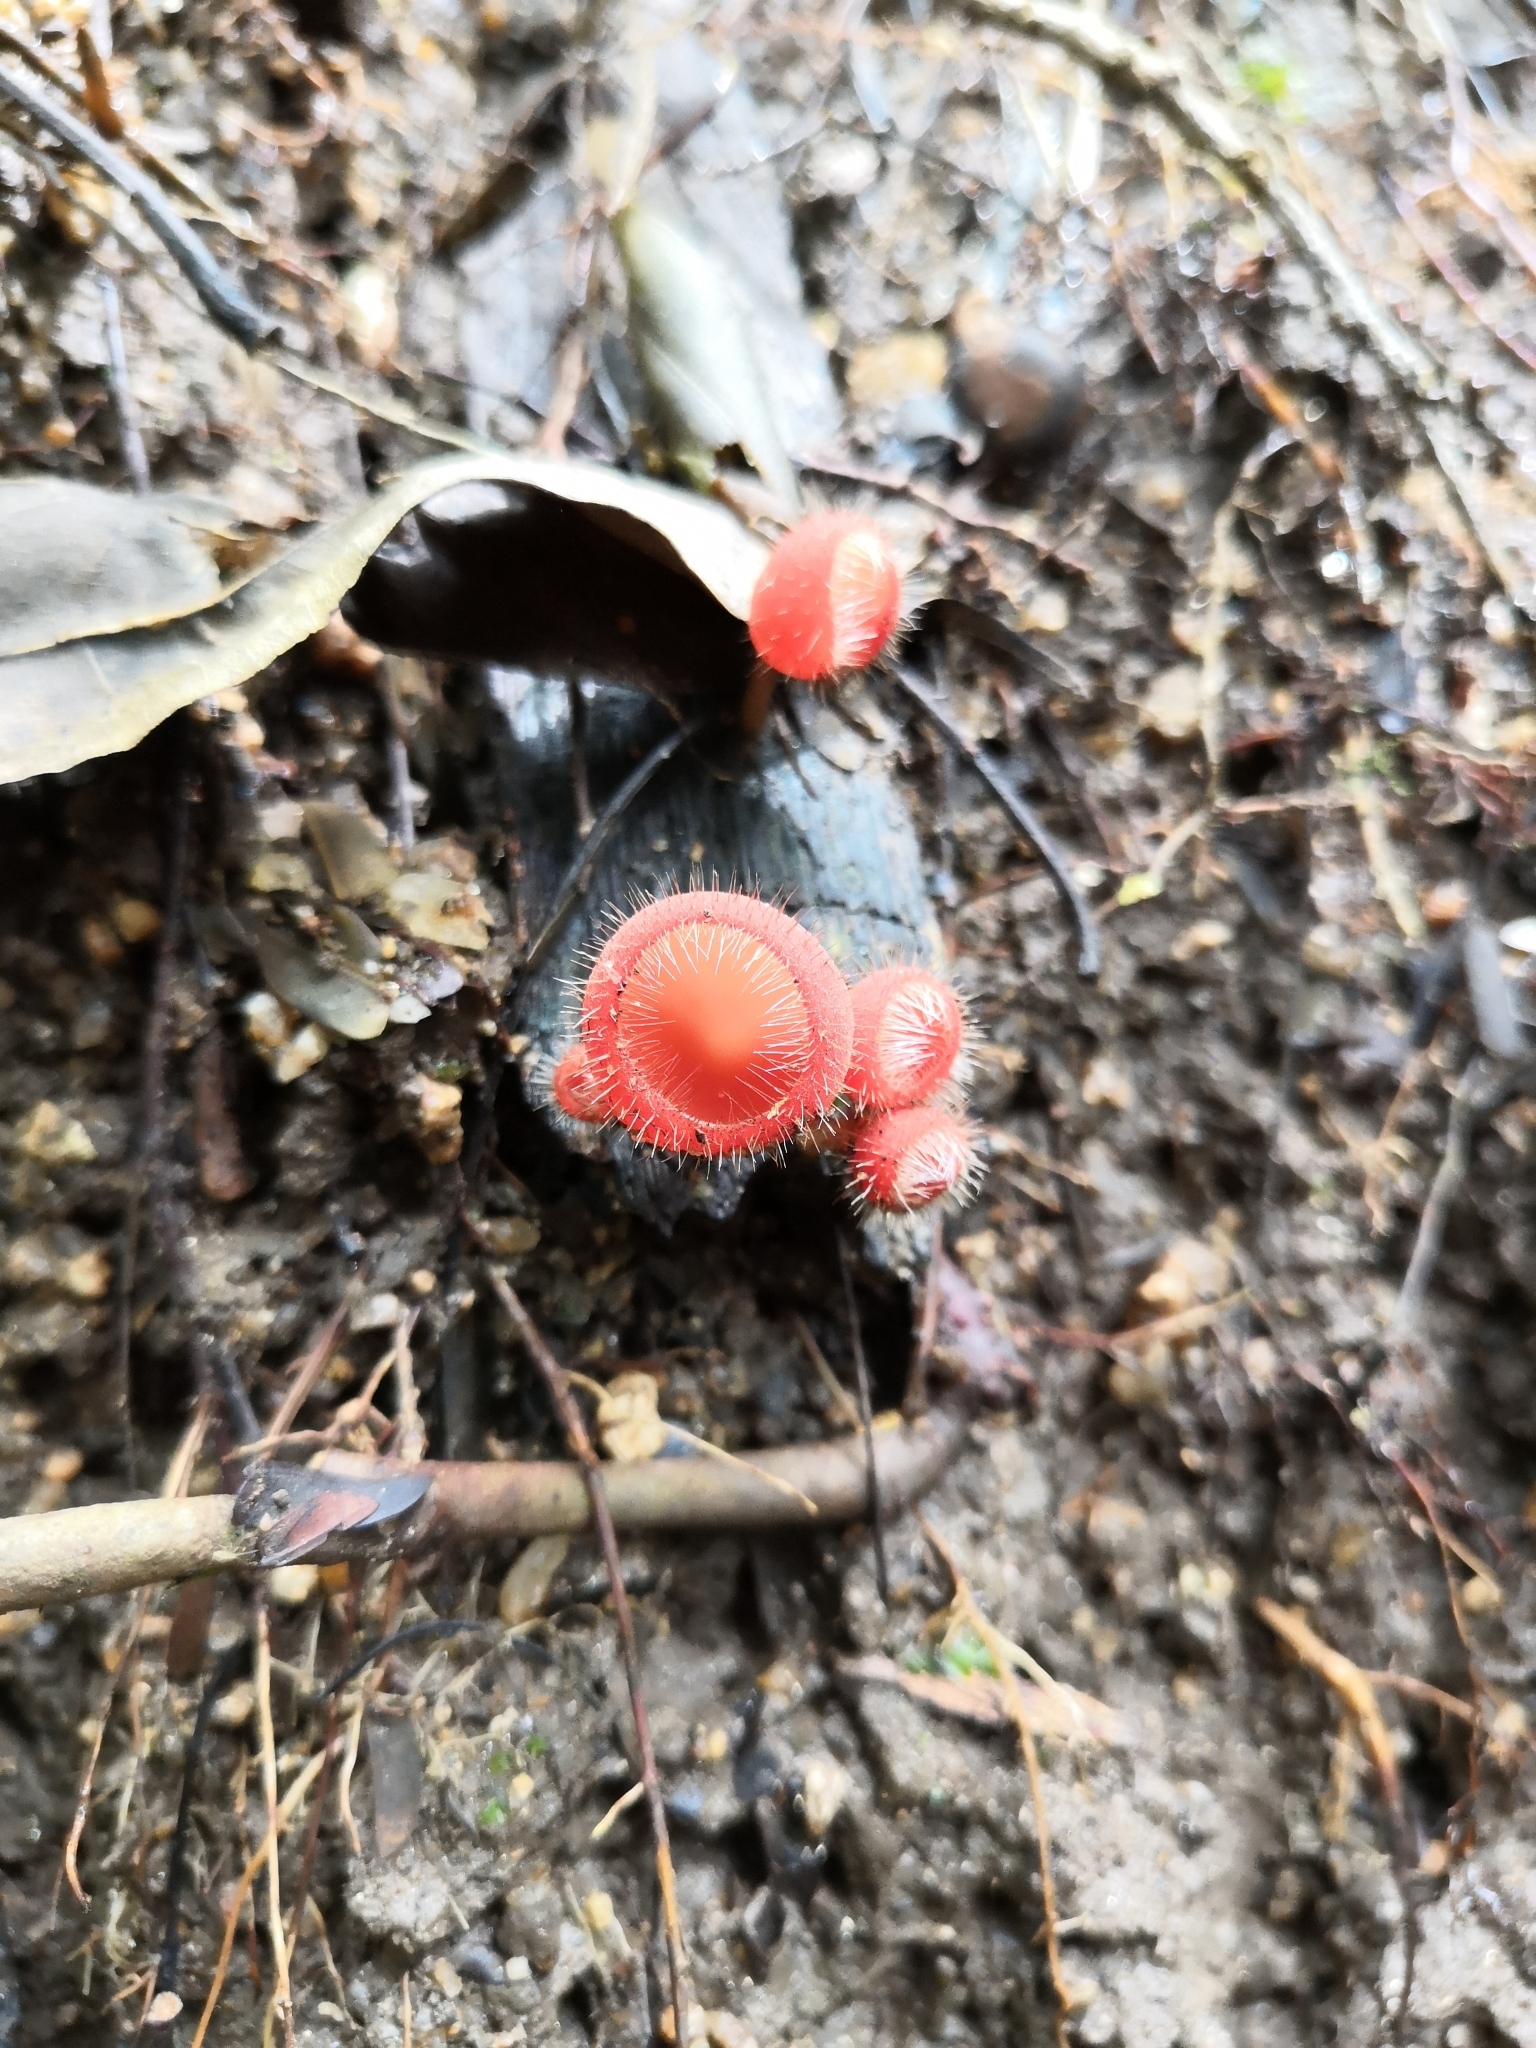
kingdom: Fungi
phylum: Ascomycota
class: Pezizomycetes
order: Pezizales
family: Sarcoscyphaceae
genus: Cookeina
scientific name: Cookeina tricholoma
